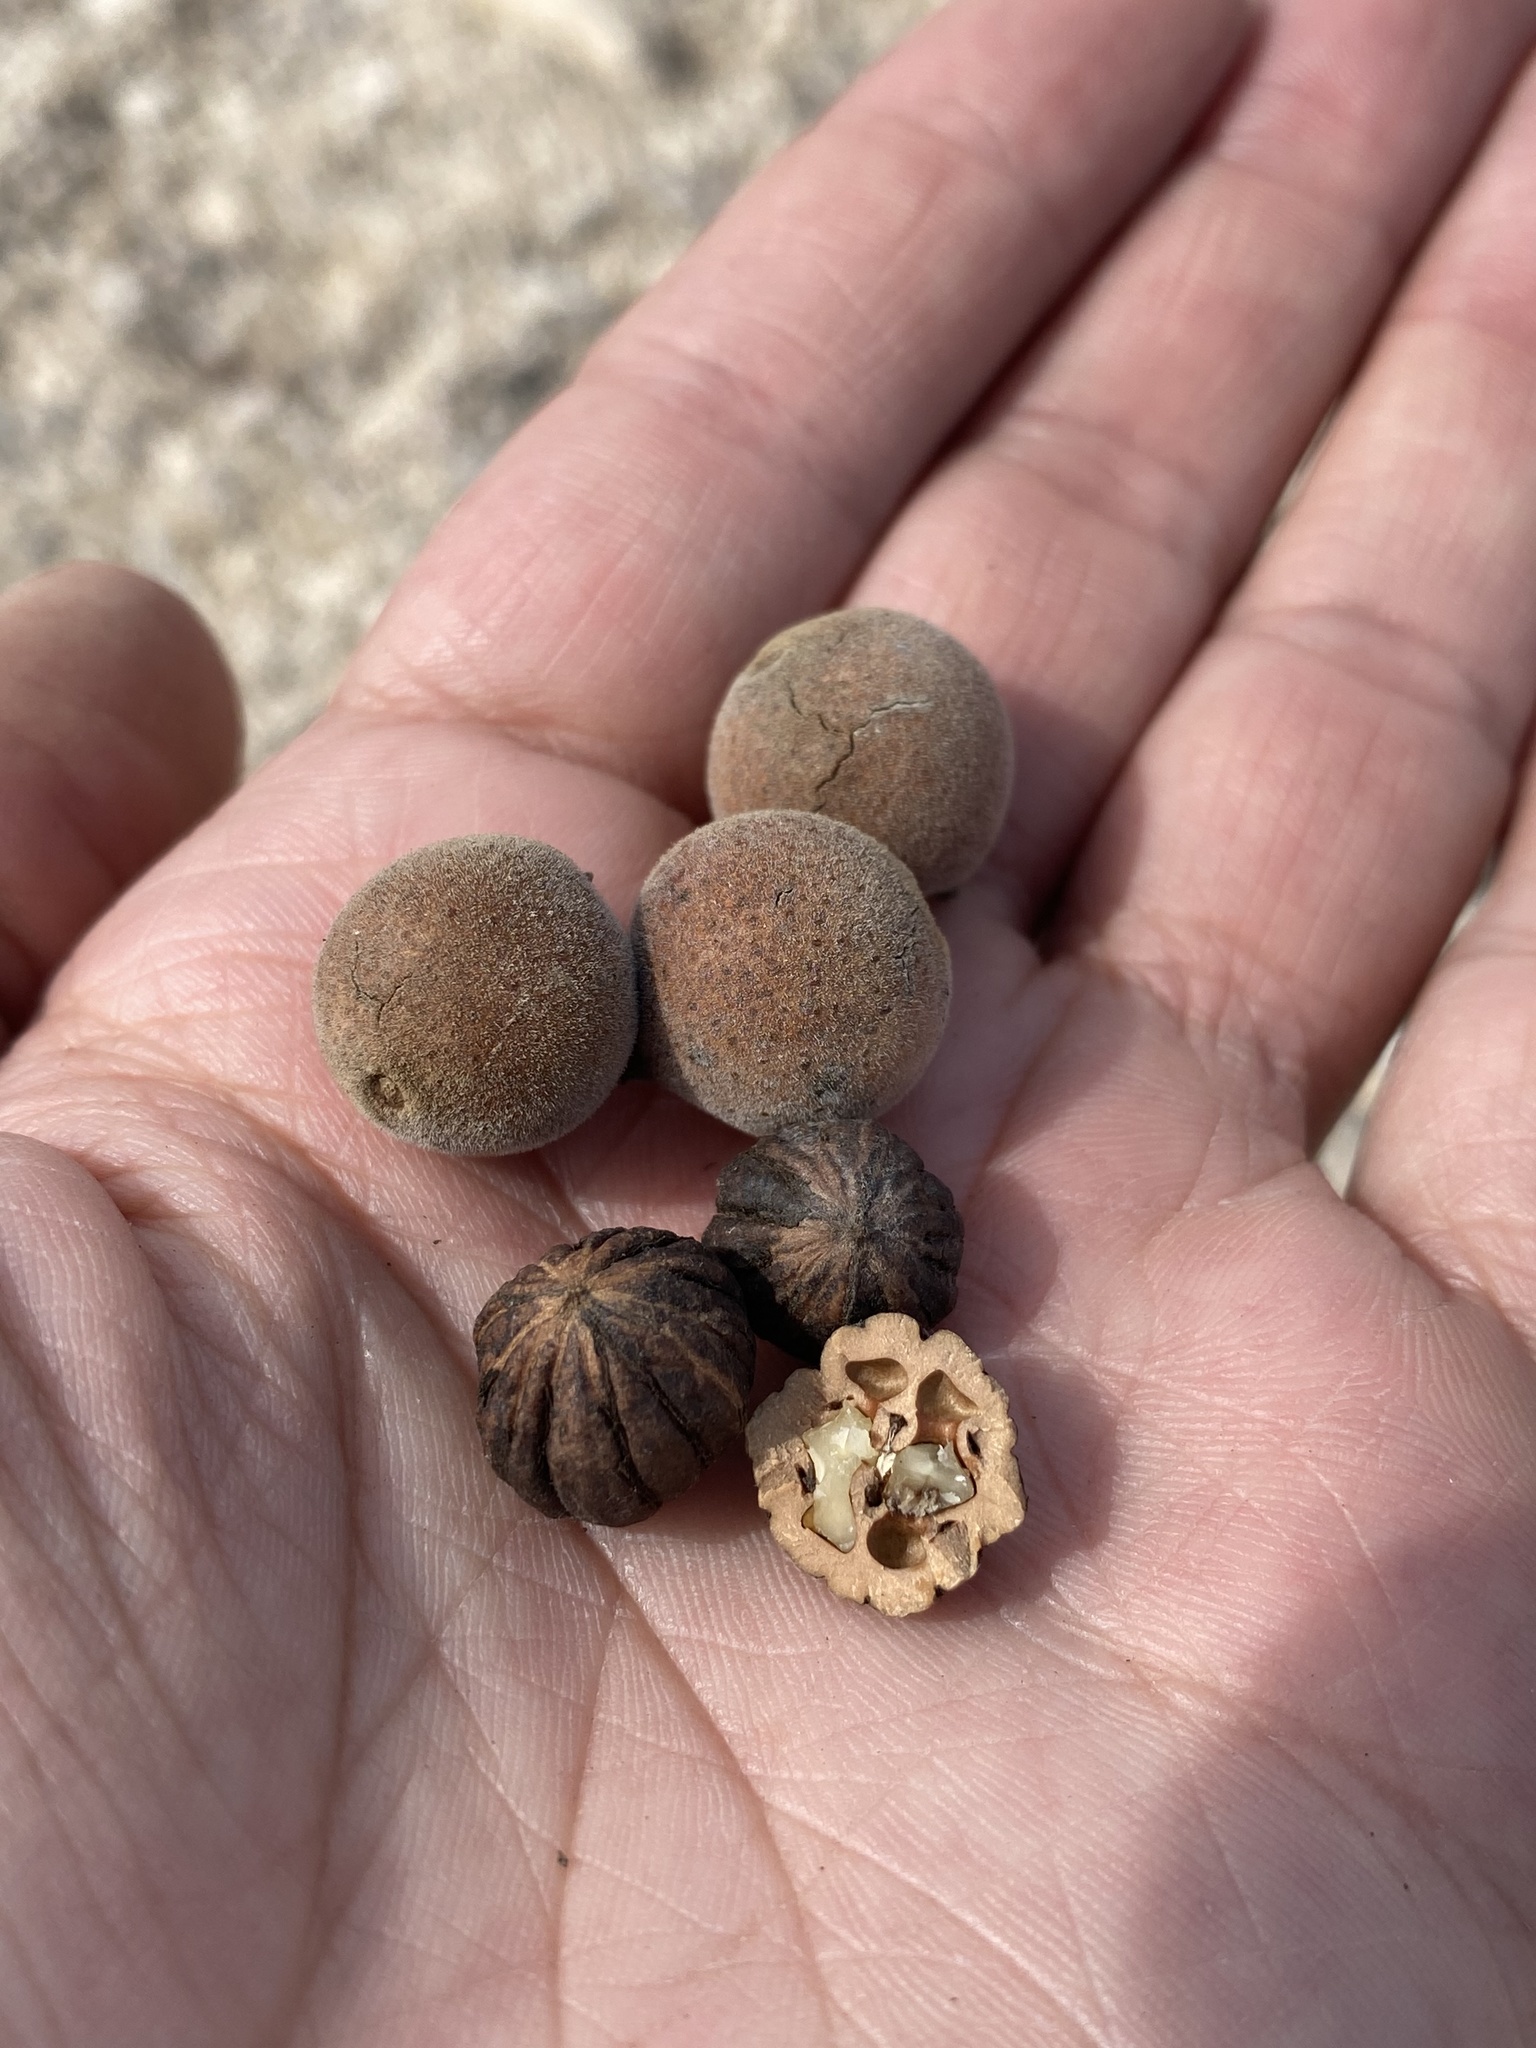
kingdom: Plantae
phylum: Tracheophyta
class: Magnoliopsida
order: Fagales
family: Juglandaceae
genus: Juglans
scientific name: Juglans microcarpa
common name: Texas walnut
